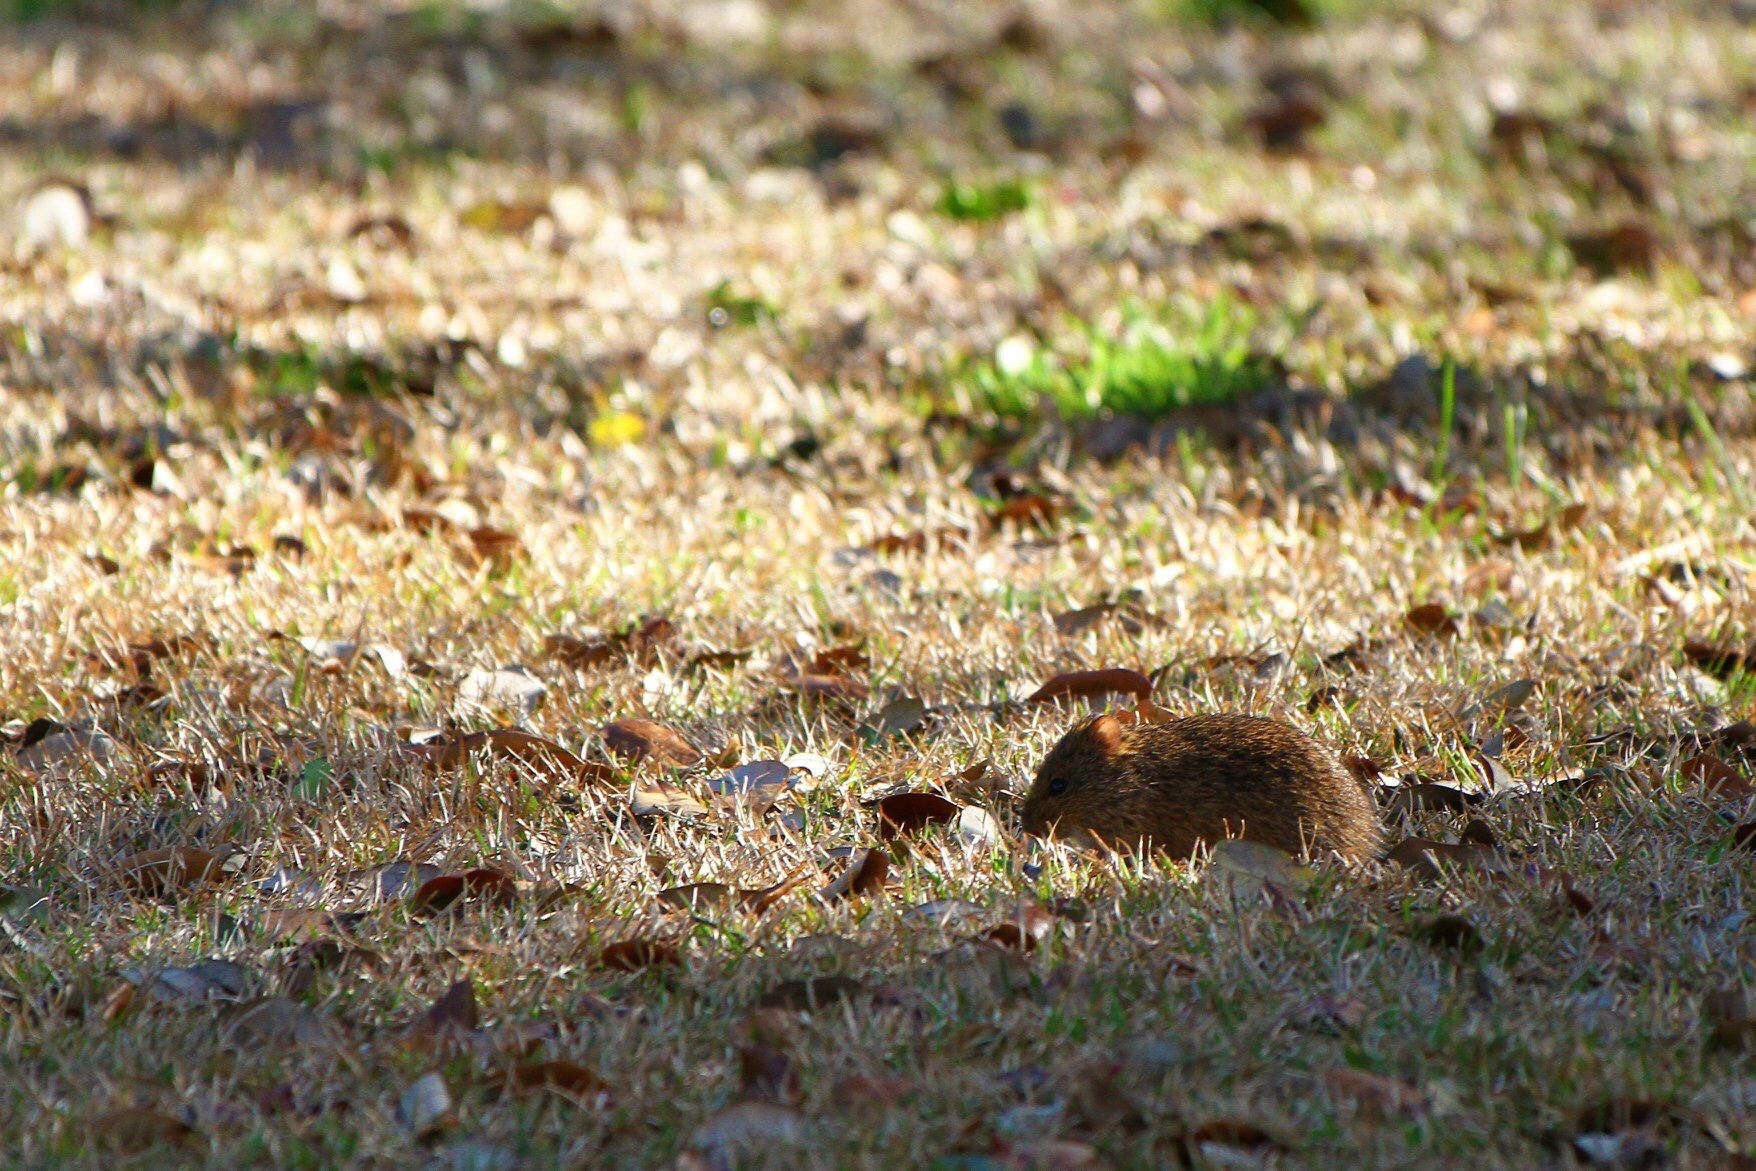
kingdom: Animalia
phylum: Chordata
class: Mammalia
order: Rodentia
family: Cricetidae
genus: Sigmodon
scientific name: Sigmodon hispidus
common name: Hispid cotton rat
